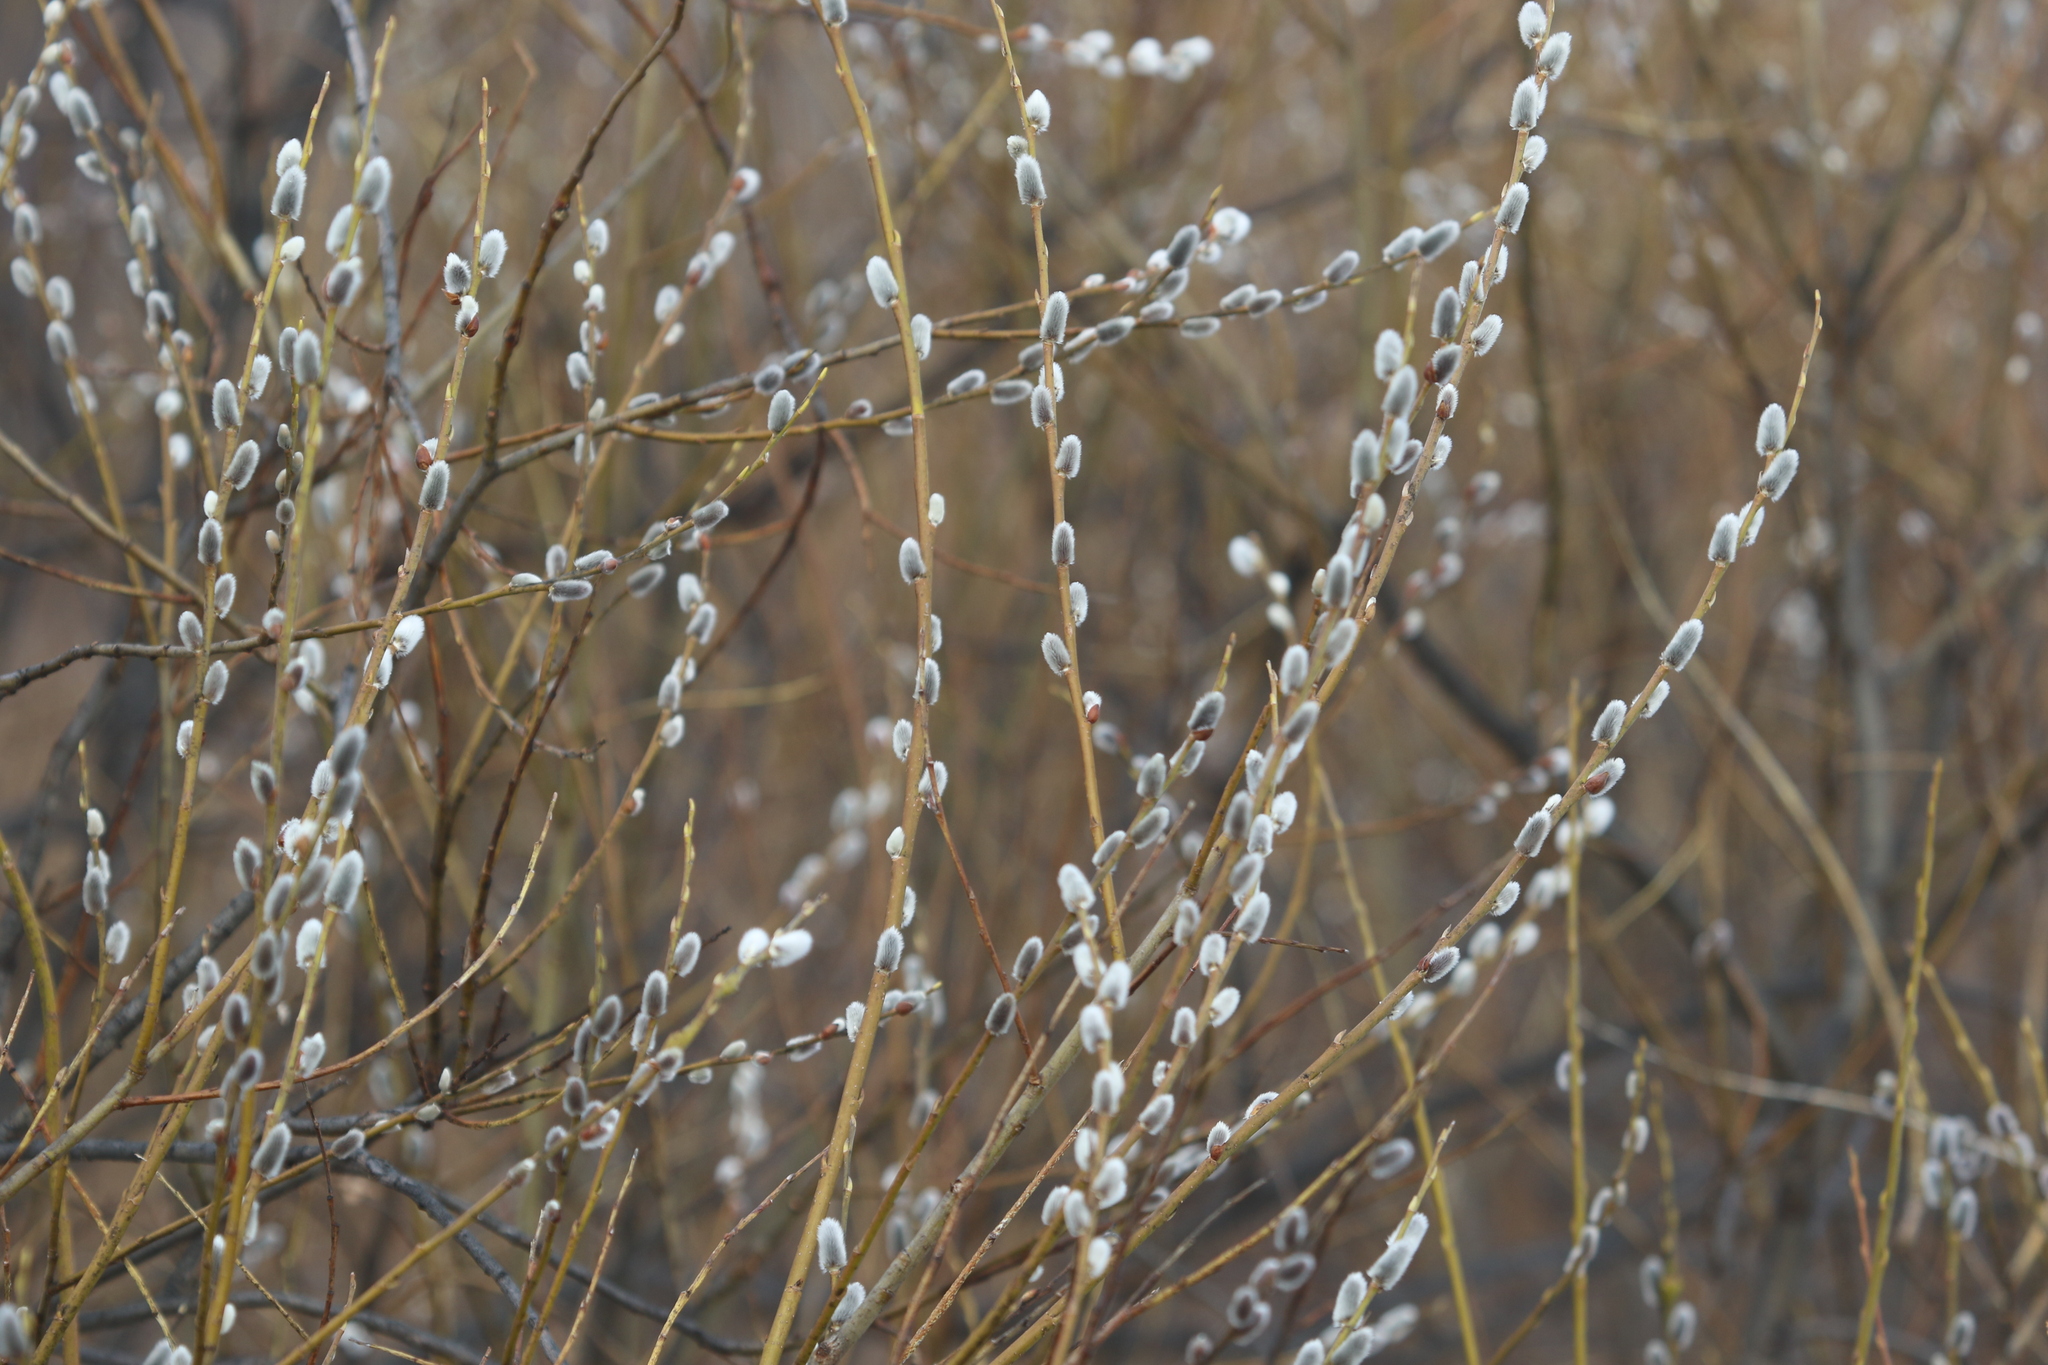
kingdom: Plantae
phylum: Tracheophyta
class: Magnoliopsida
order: Malpighiales
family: Salicaceae
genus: Salix
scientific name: Salix caprea
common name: Goat willow
